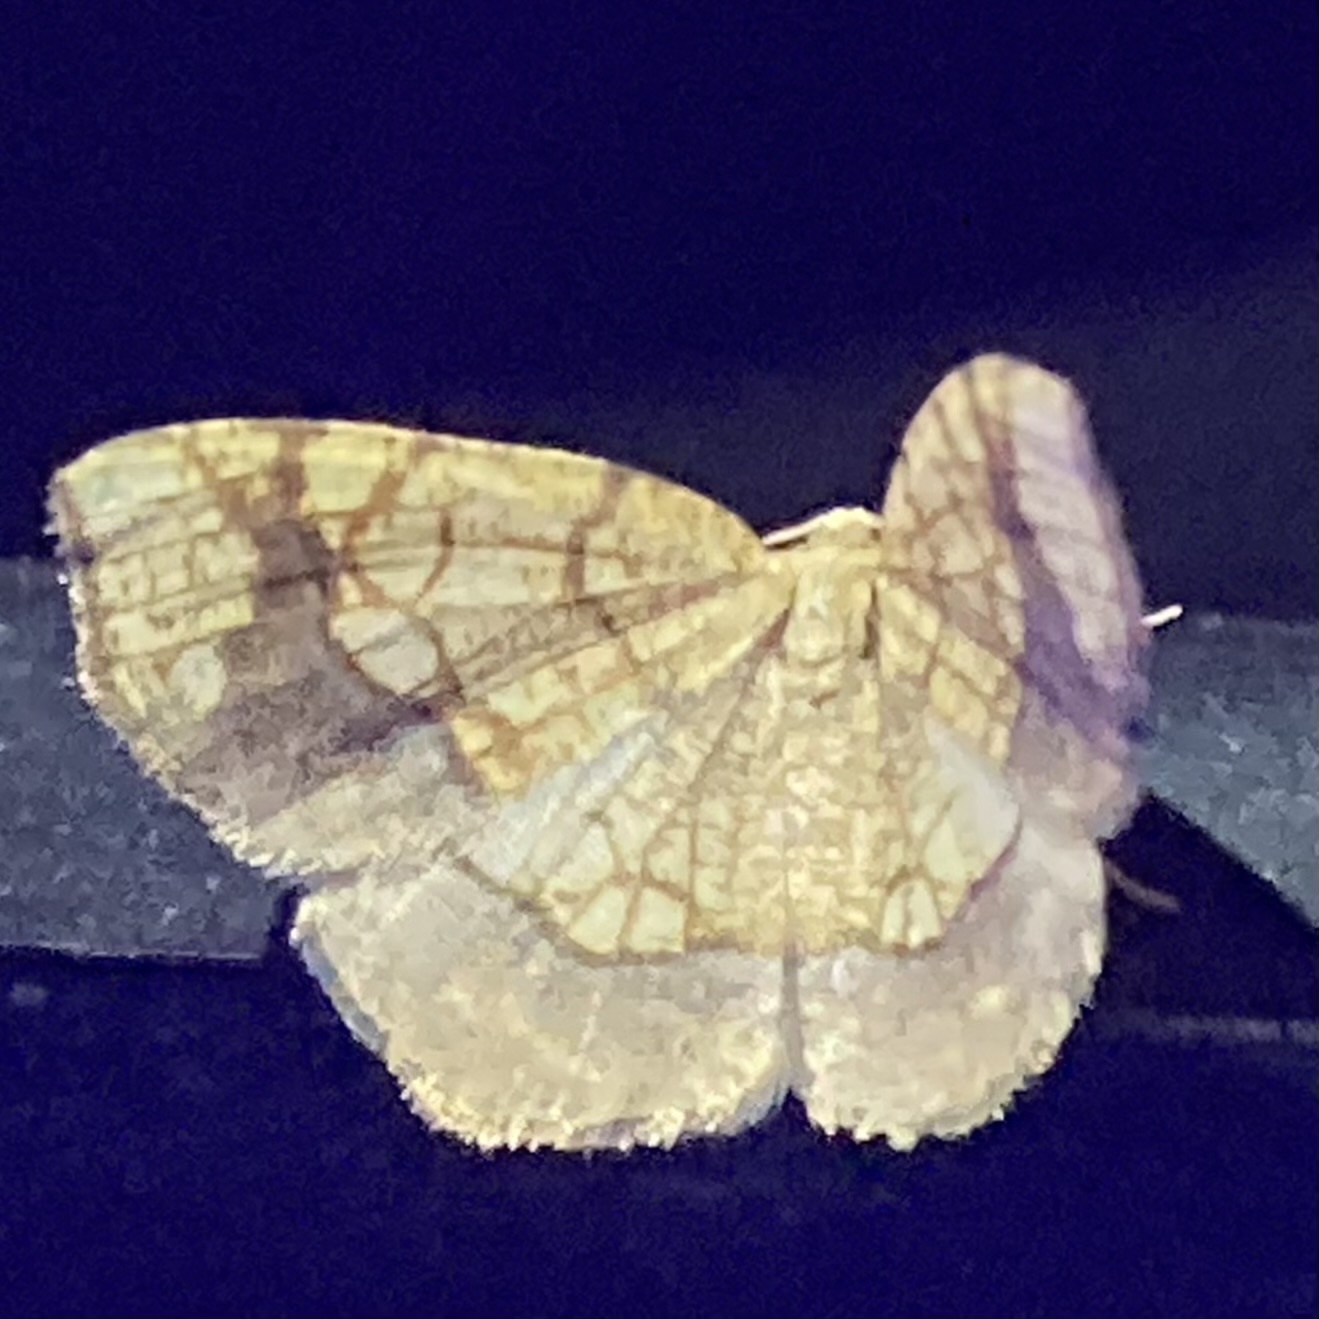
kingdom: Animalia
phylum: Arthropoda
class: Insecta
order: Lepidoptera
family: Geometridae
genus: Nematocampa
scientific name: Nematocampa resistaria
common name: Horned spanworm moth
